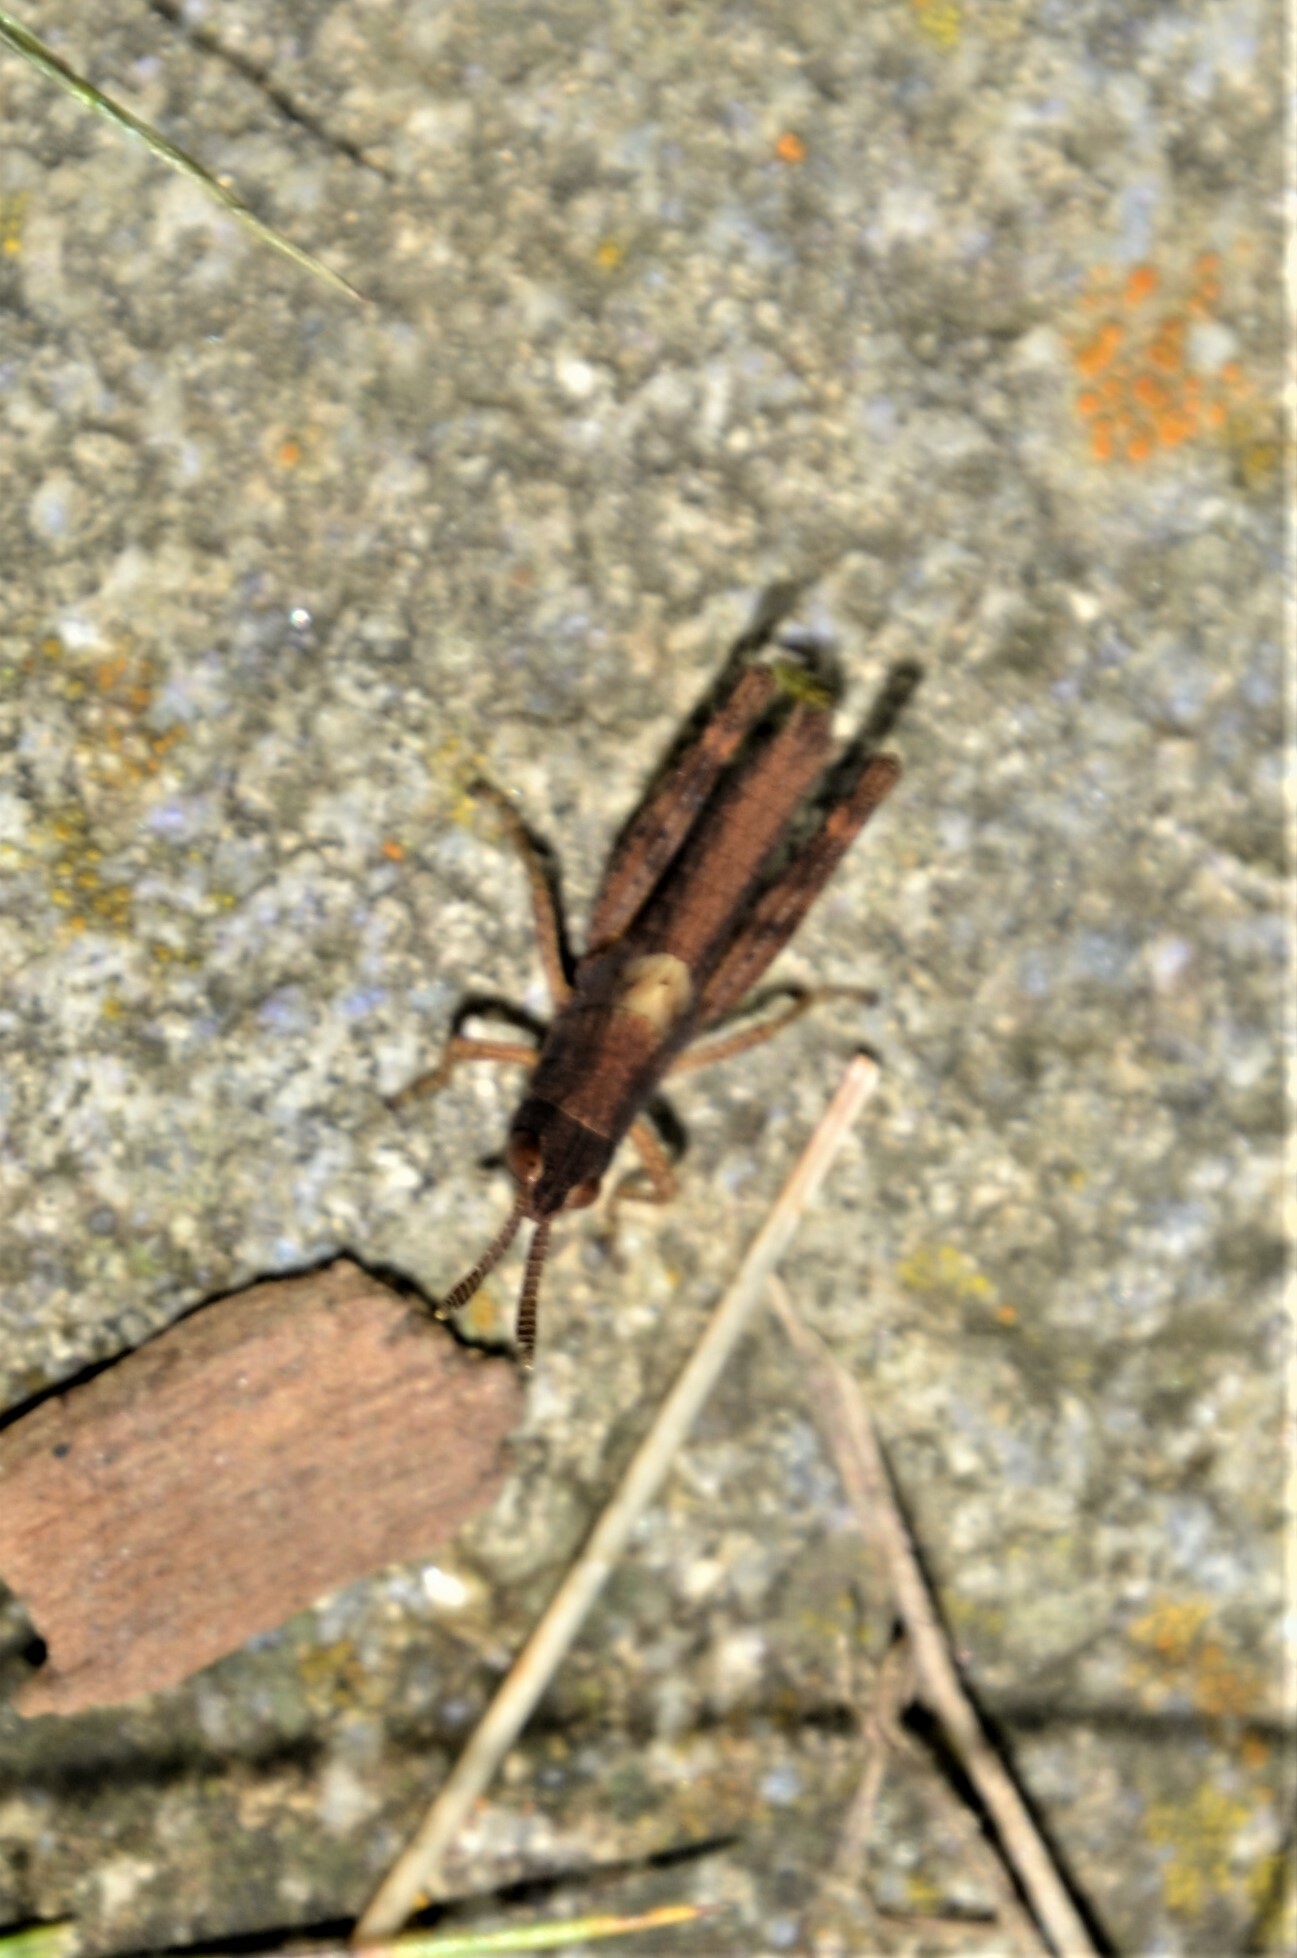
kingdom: Animalia
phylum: Arthropoda
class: Insecta
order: Orthoptera
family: Acrididae
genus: Gomphocerippus
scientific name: Gomphocerippus rufus
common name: Rufous grasshopper
